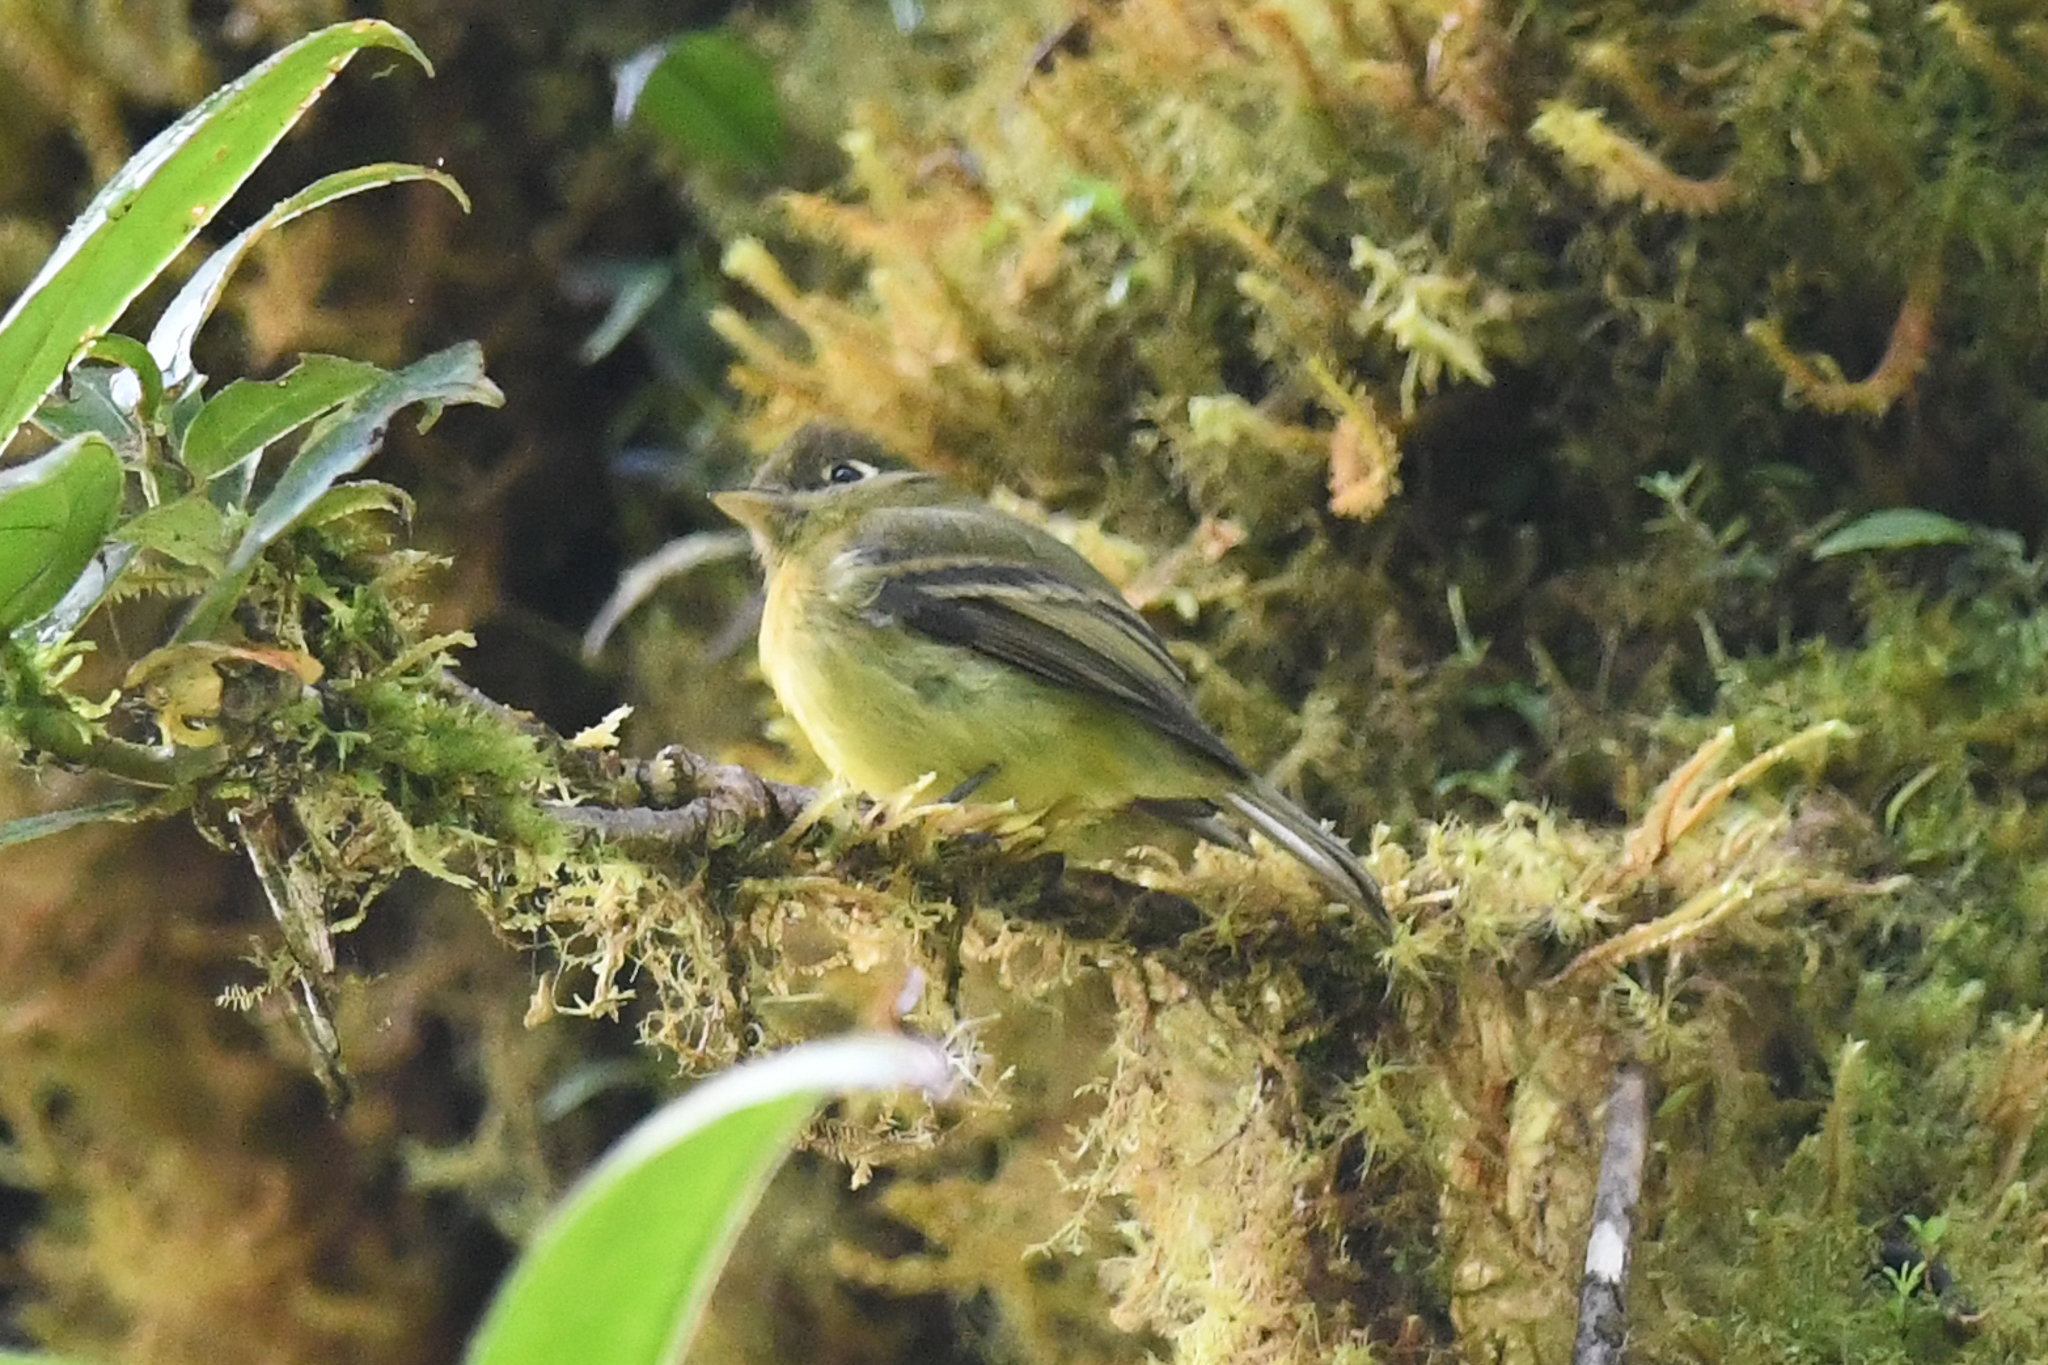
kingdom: Animalia
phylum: Chordata
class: Aves
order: Passeriformes
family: Tyrannidae
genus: Empidonax
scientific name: Empidonax flavescens
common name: Yellowish flycatcher
